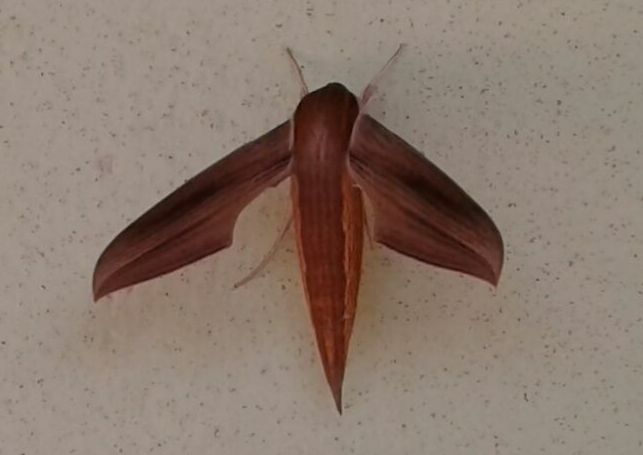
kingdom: Animalia
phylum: Arthropoda
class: Insecta
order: Lepidoptera
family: Sphingidae
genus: Xylophanes
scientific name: Xylophanes tersa
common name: Tersa sphinx
